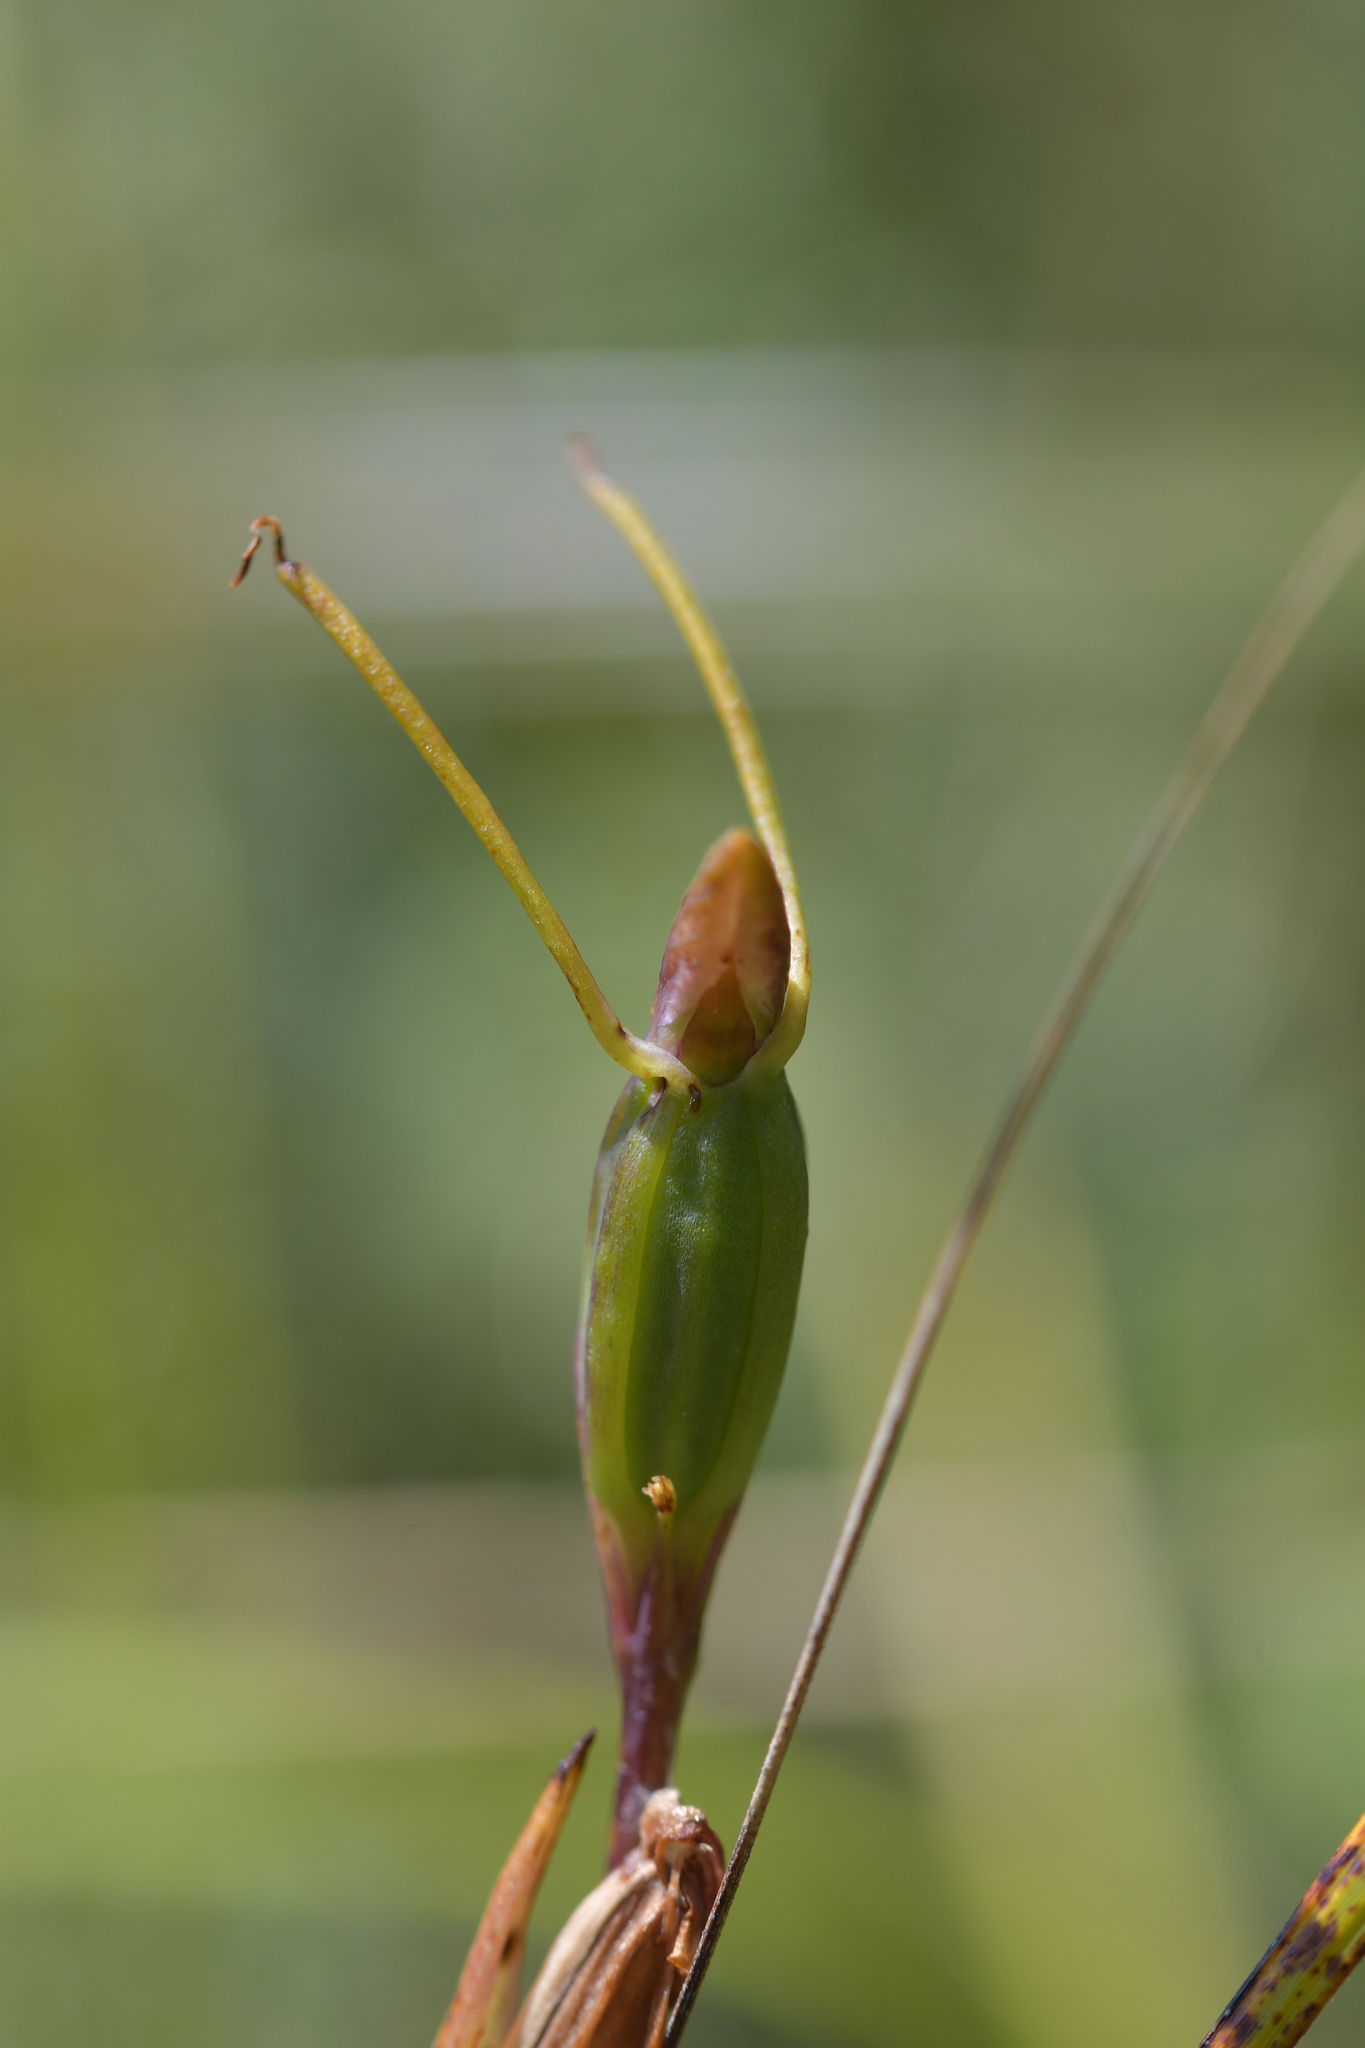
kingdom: Plantae
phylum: Tracheophyta
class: Liliopsida
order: Asparagales
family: Orchidaceae
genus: Orthoceras
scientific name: Orthoceras novae-zeelandiae
